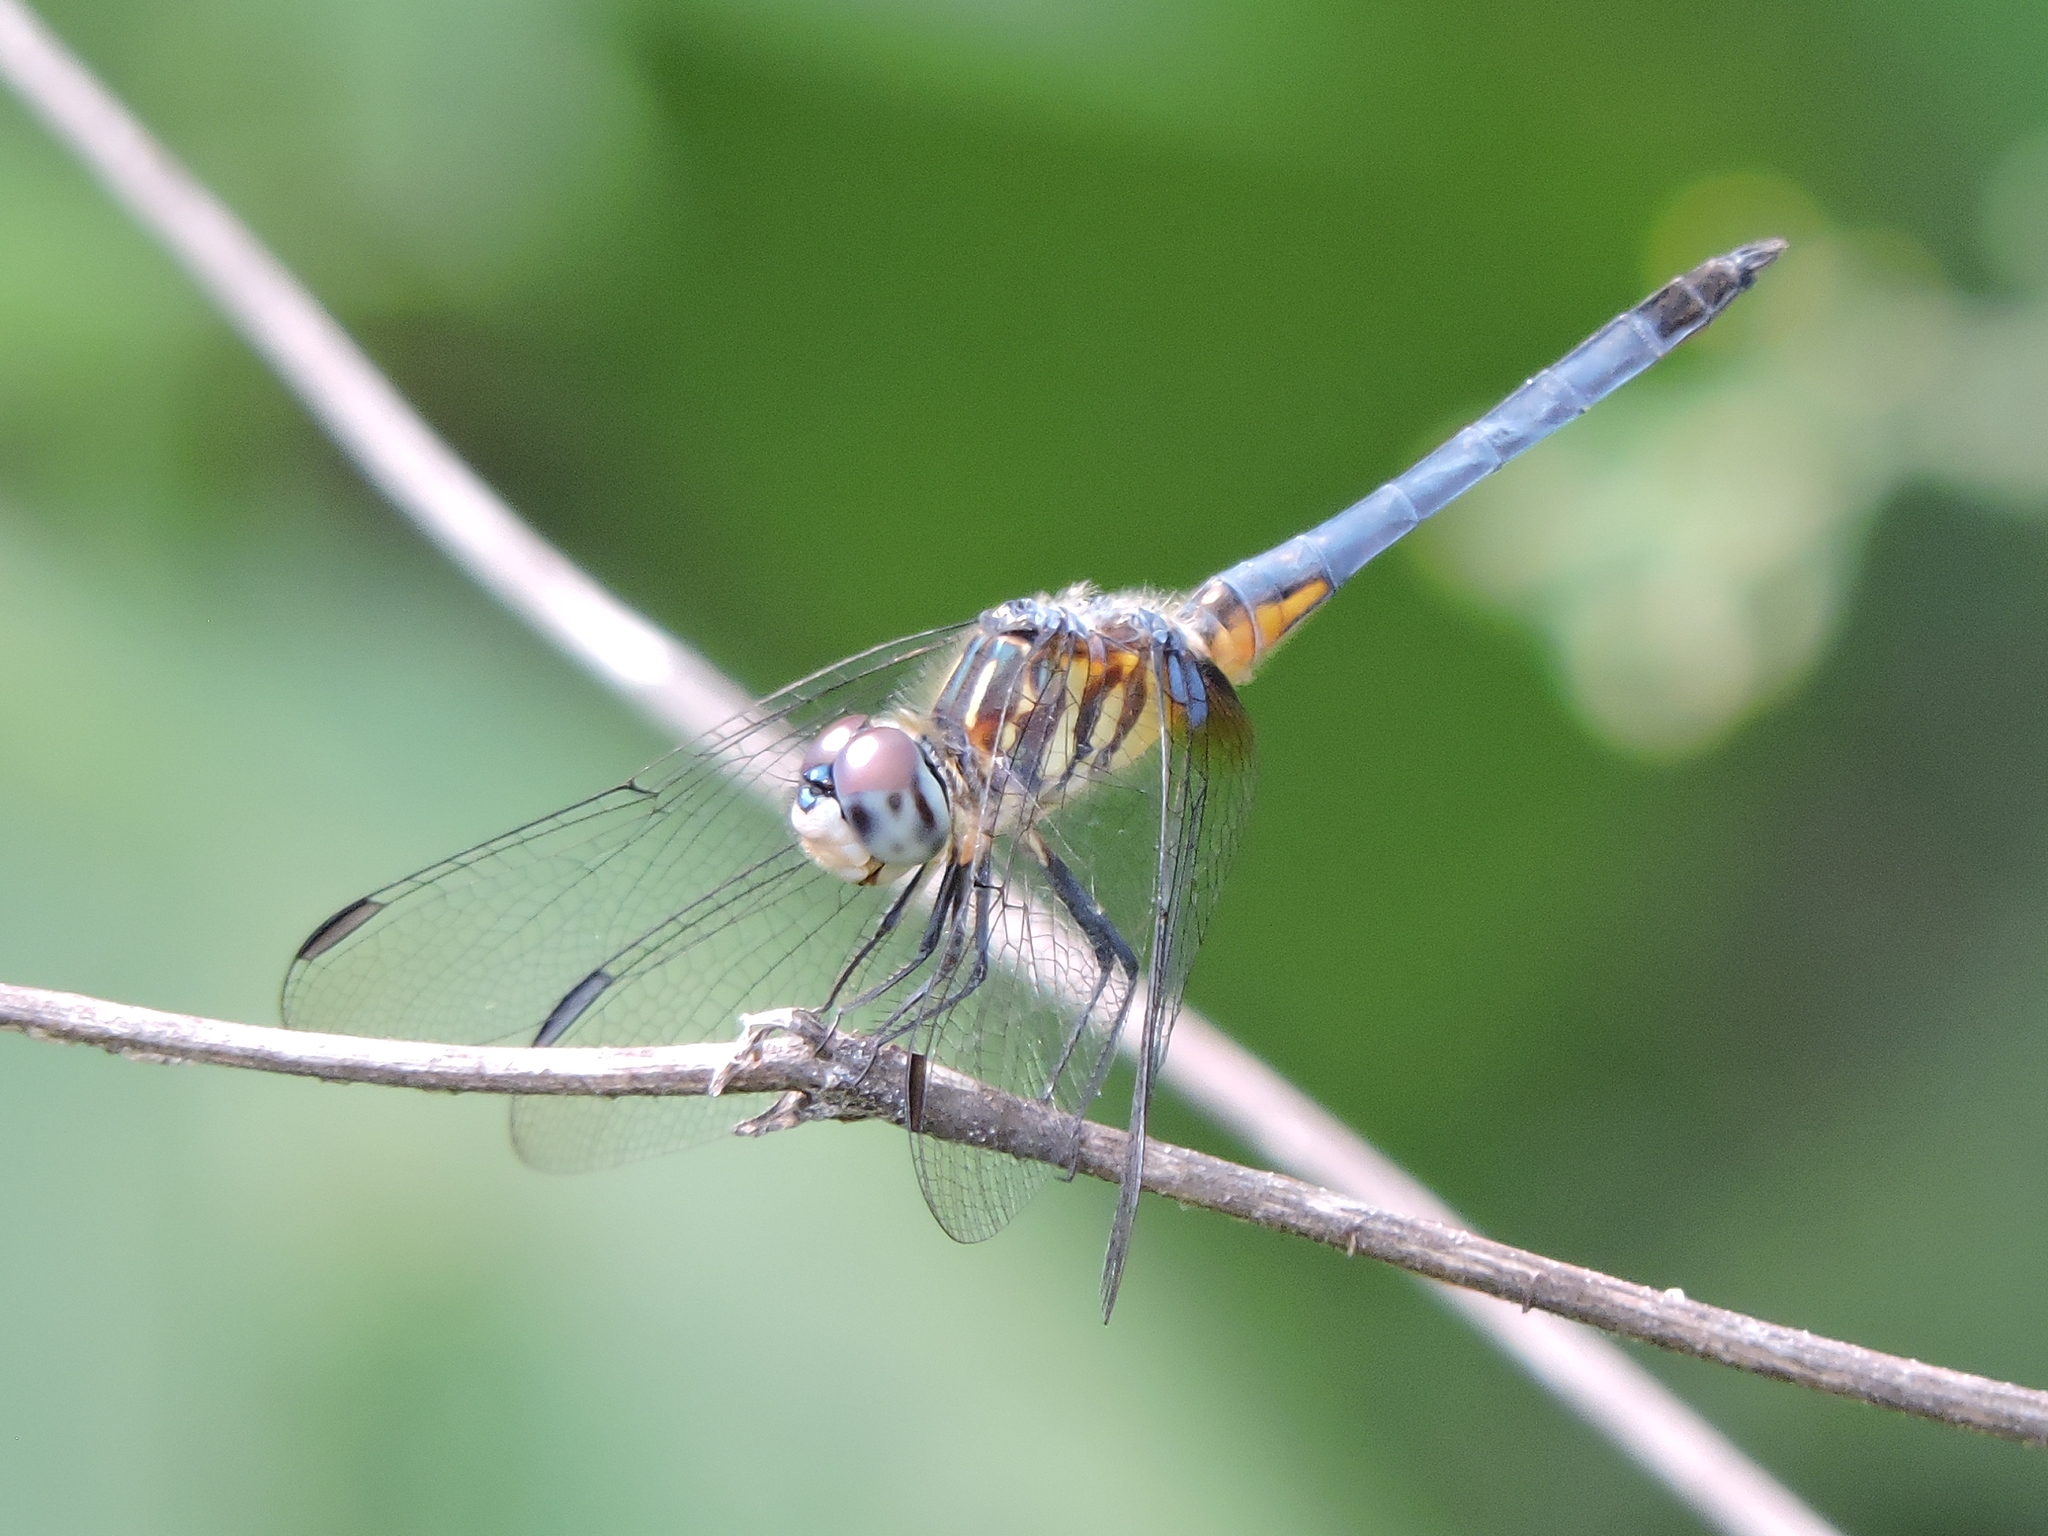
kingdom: Animalia
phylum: Arthropoda
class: Insecta
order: Odonata
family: Libellulidae
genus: Pachydiplax
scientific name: Pachydiplax longipennis
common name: Blue dasher
